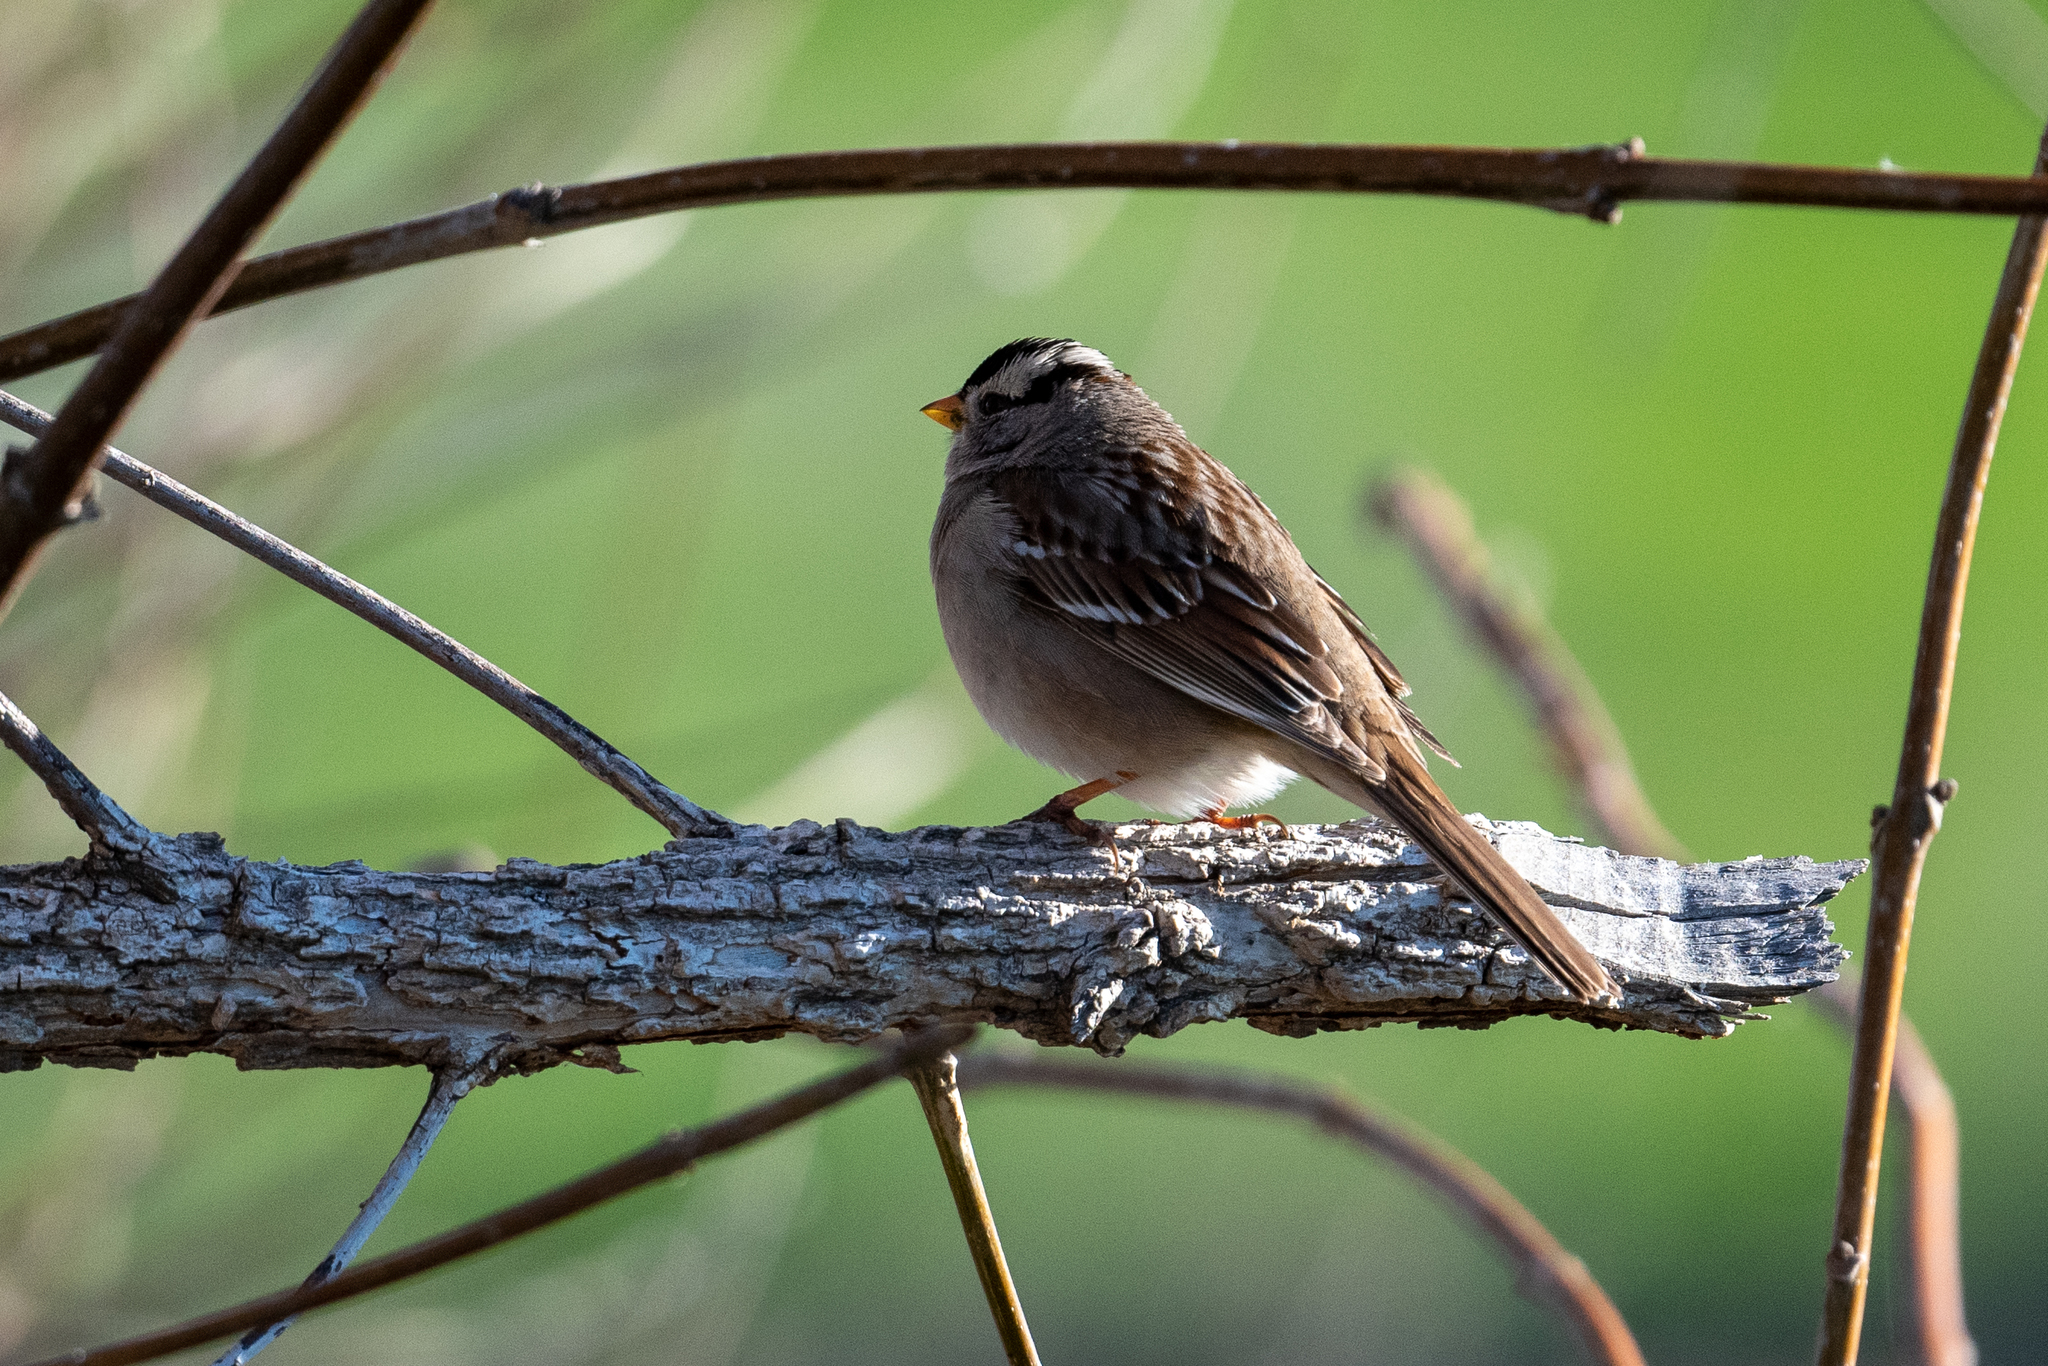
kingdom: Animalia
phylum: Chordata
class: Aves
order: Passeriformes
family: Passerellidae
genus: Zonotrichia
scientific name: Zonotrichia leucophrys
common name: White-crowned sparrow
